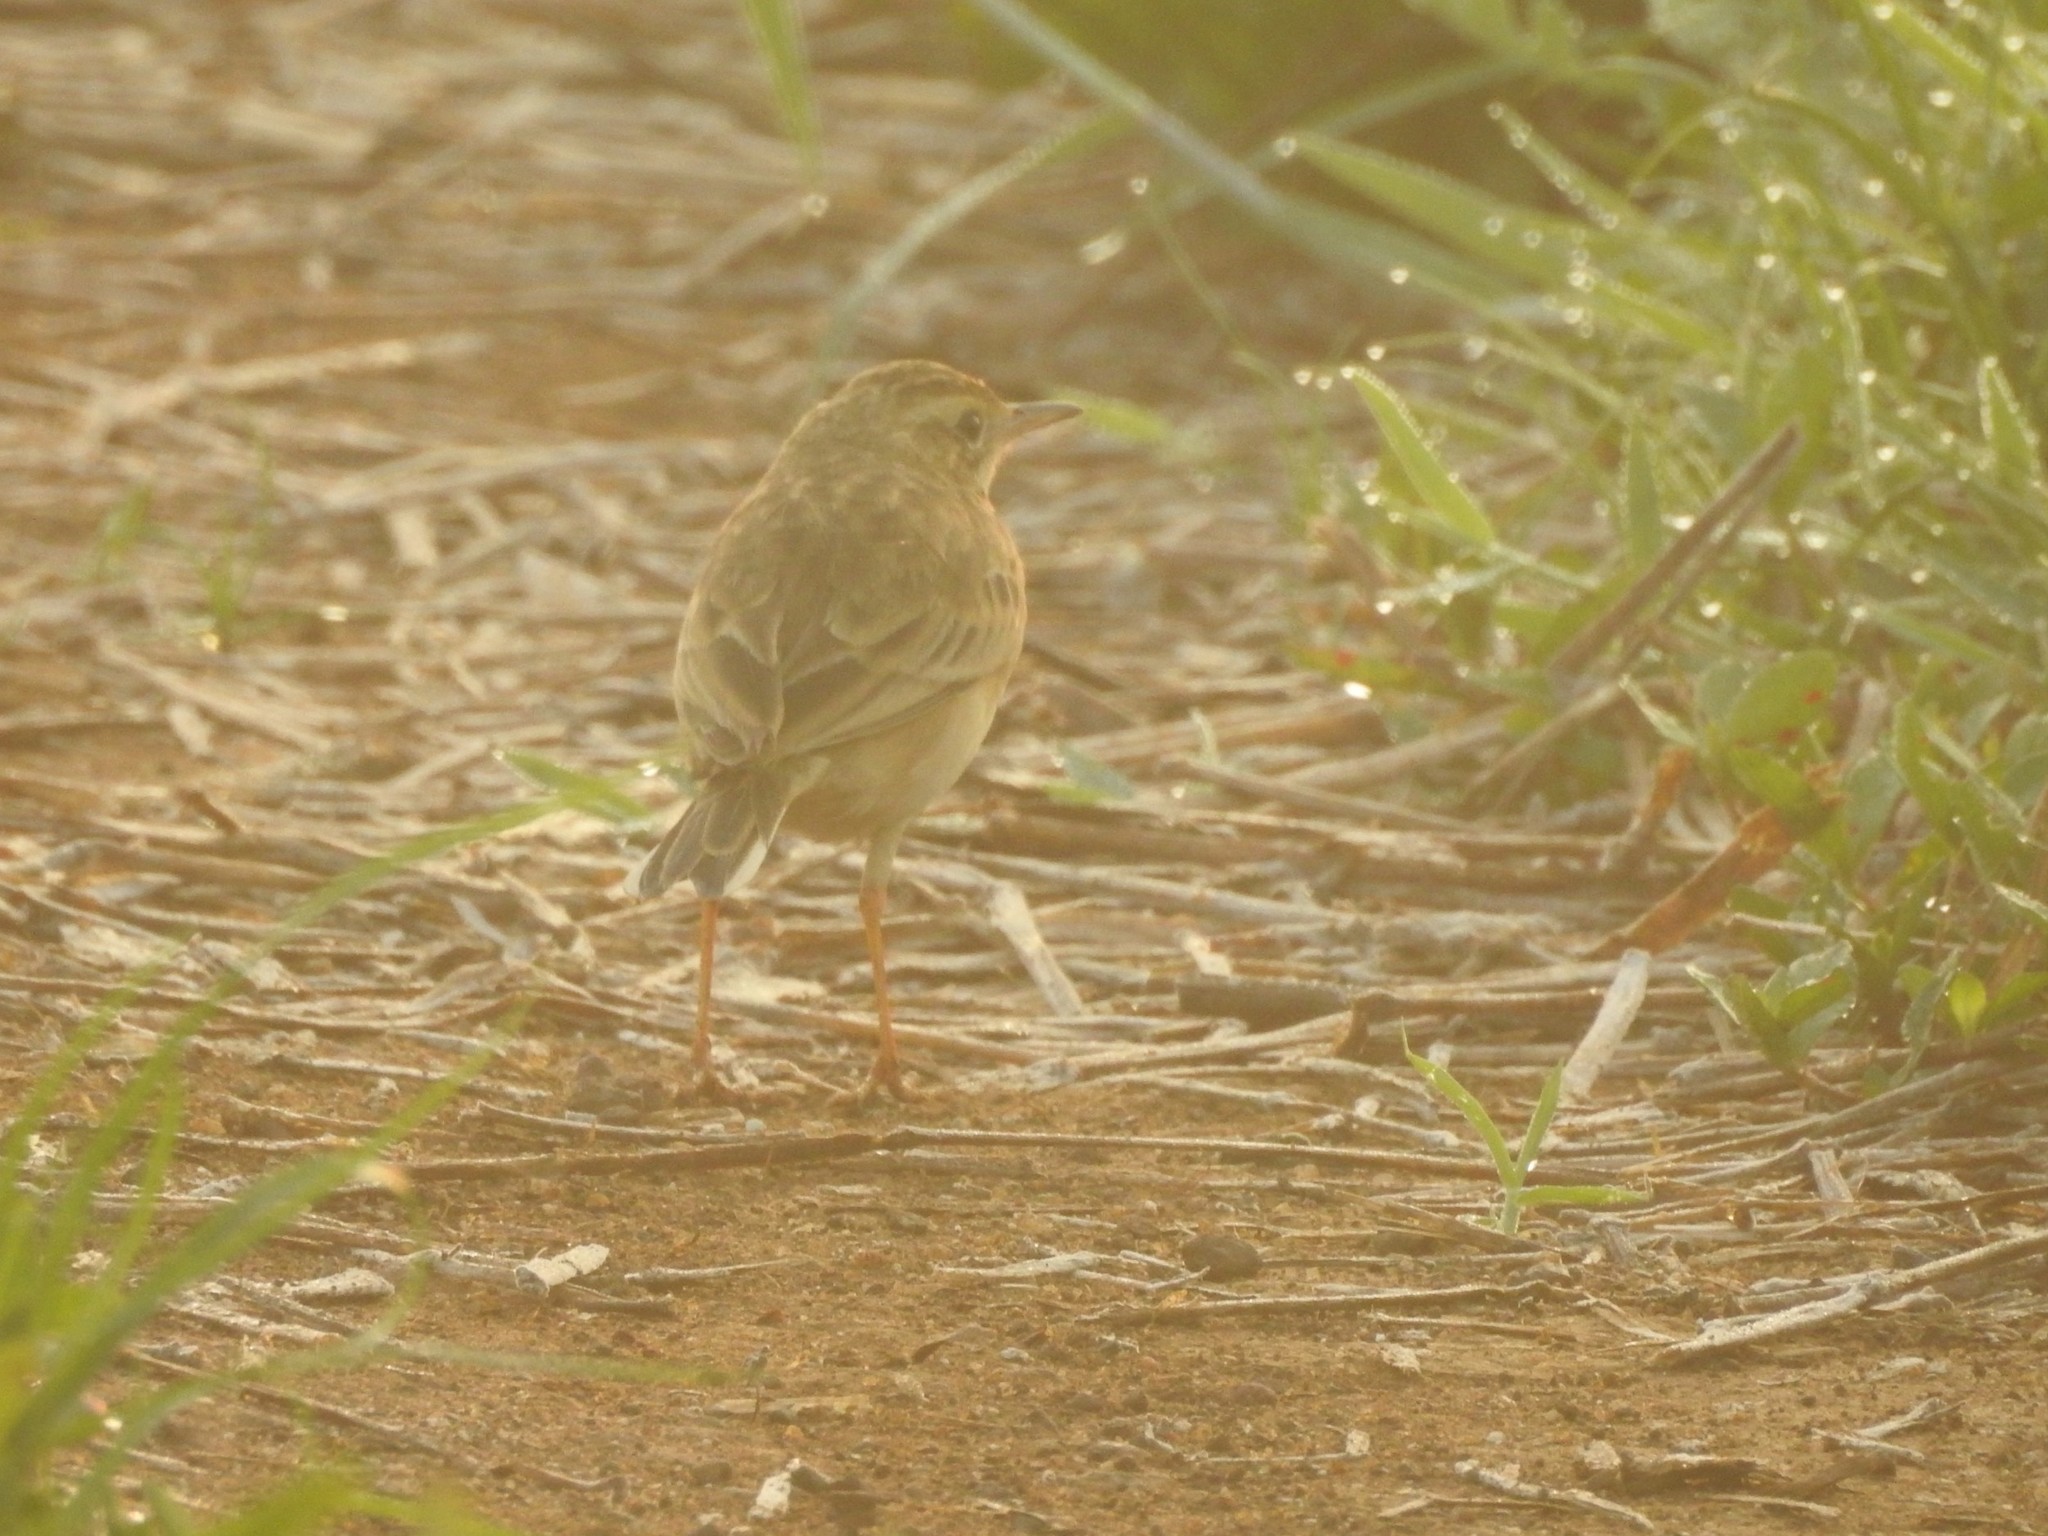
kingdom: Animalia
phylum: Chordata
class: Aves
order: Passeriformes
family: Motacillidae
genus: Anthus
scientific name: Anthus rufulus
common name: Paddyfield pipit
